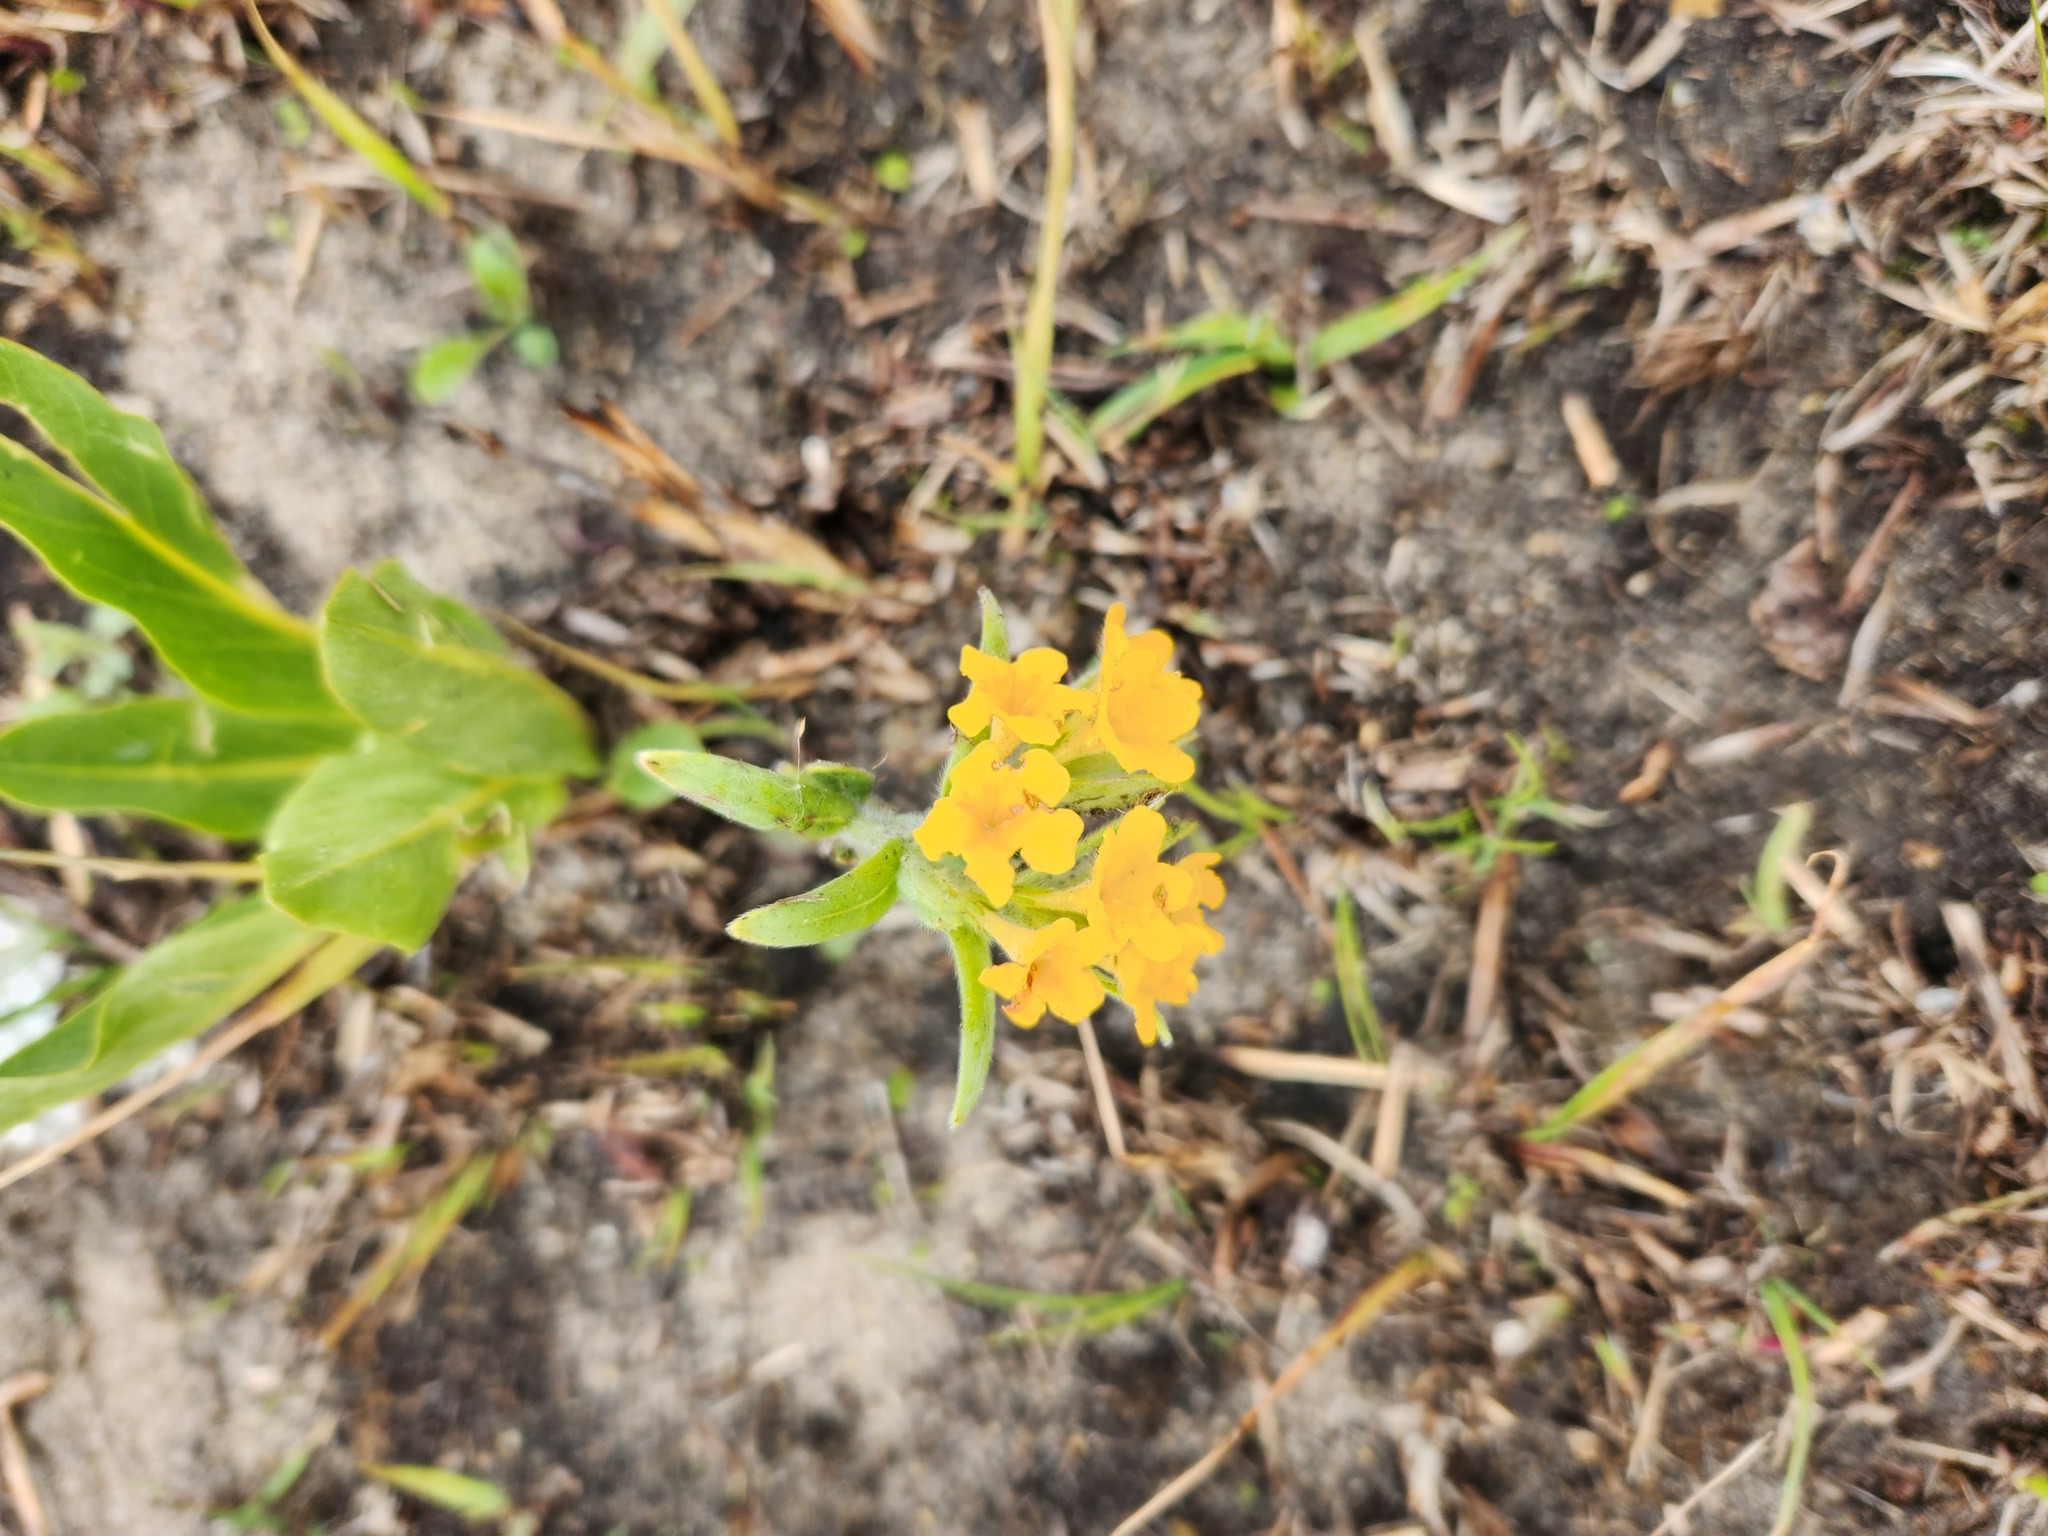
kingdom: Plantae
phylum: Tracheophyta
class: Magnoliopsida
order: Boraginales
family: Boraginaceae
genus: Lithospermum
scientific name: Lithospermum canescens
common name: Hoary puccoon
